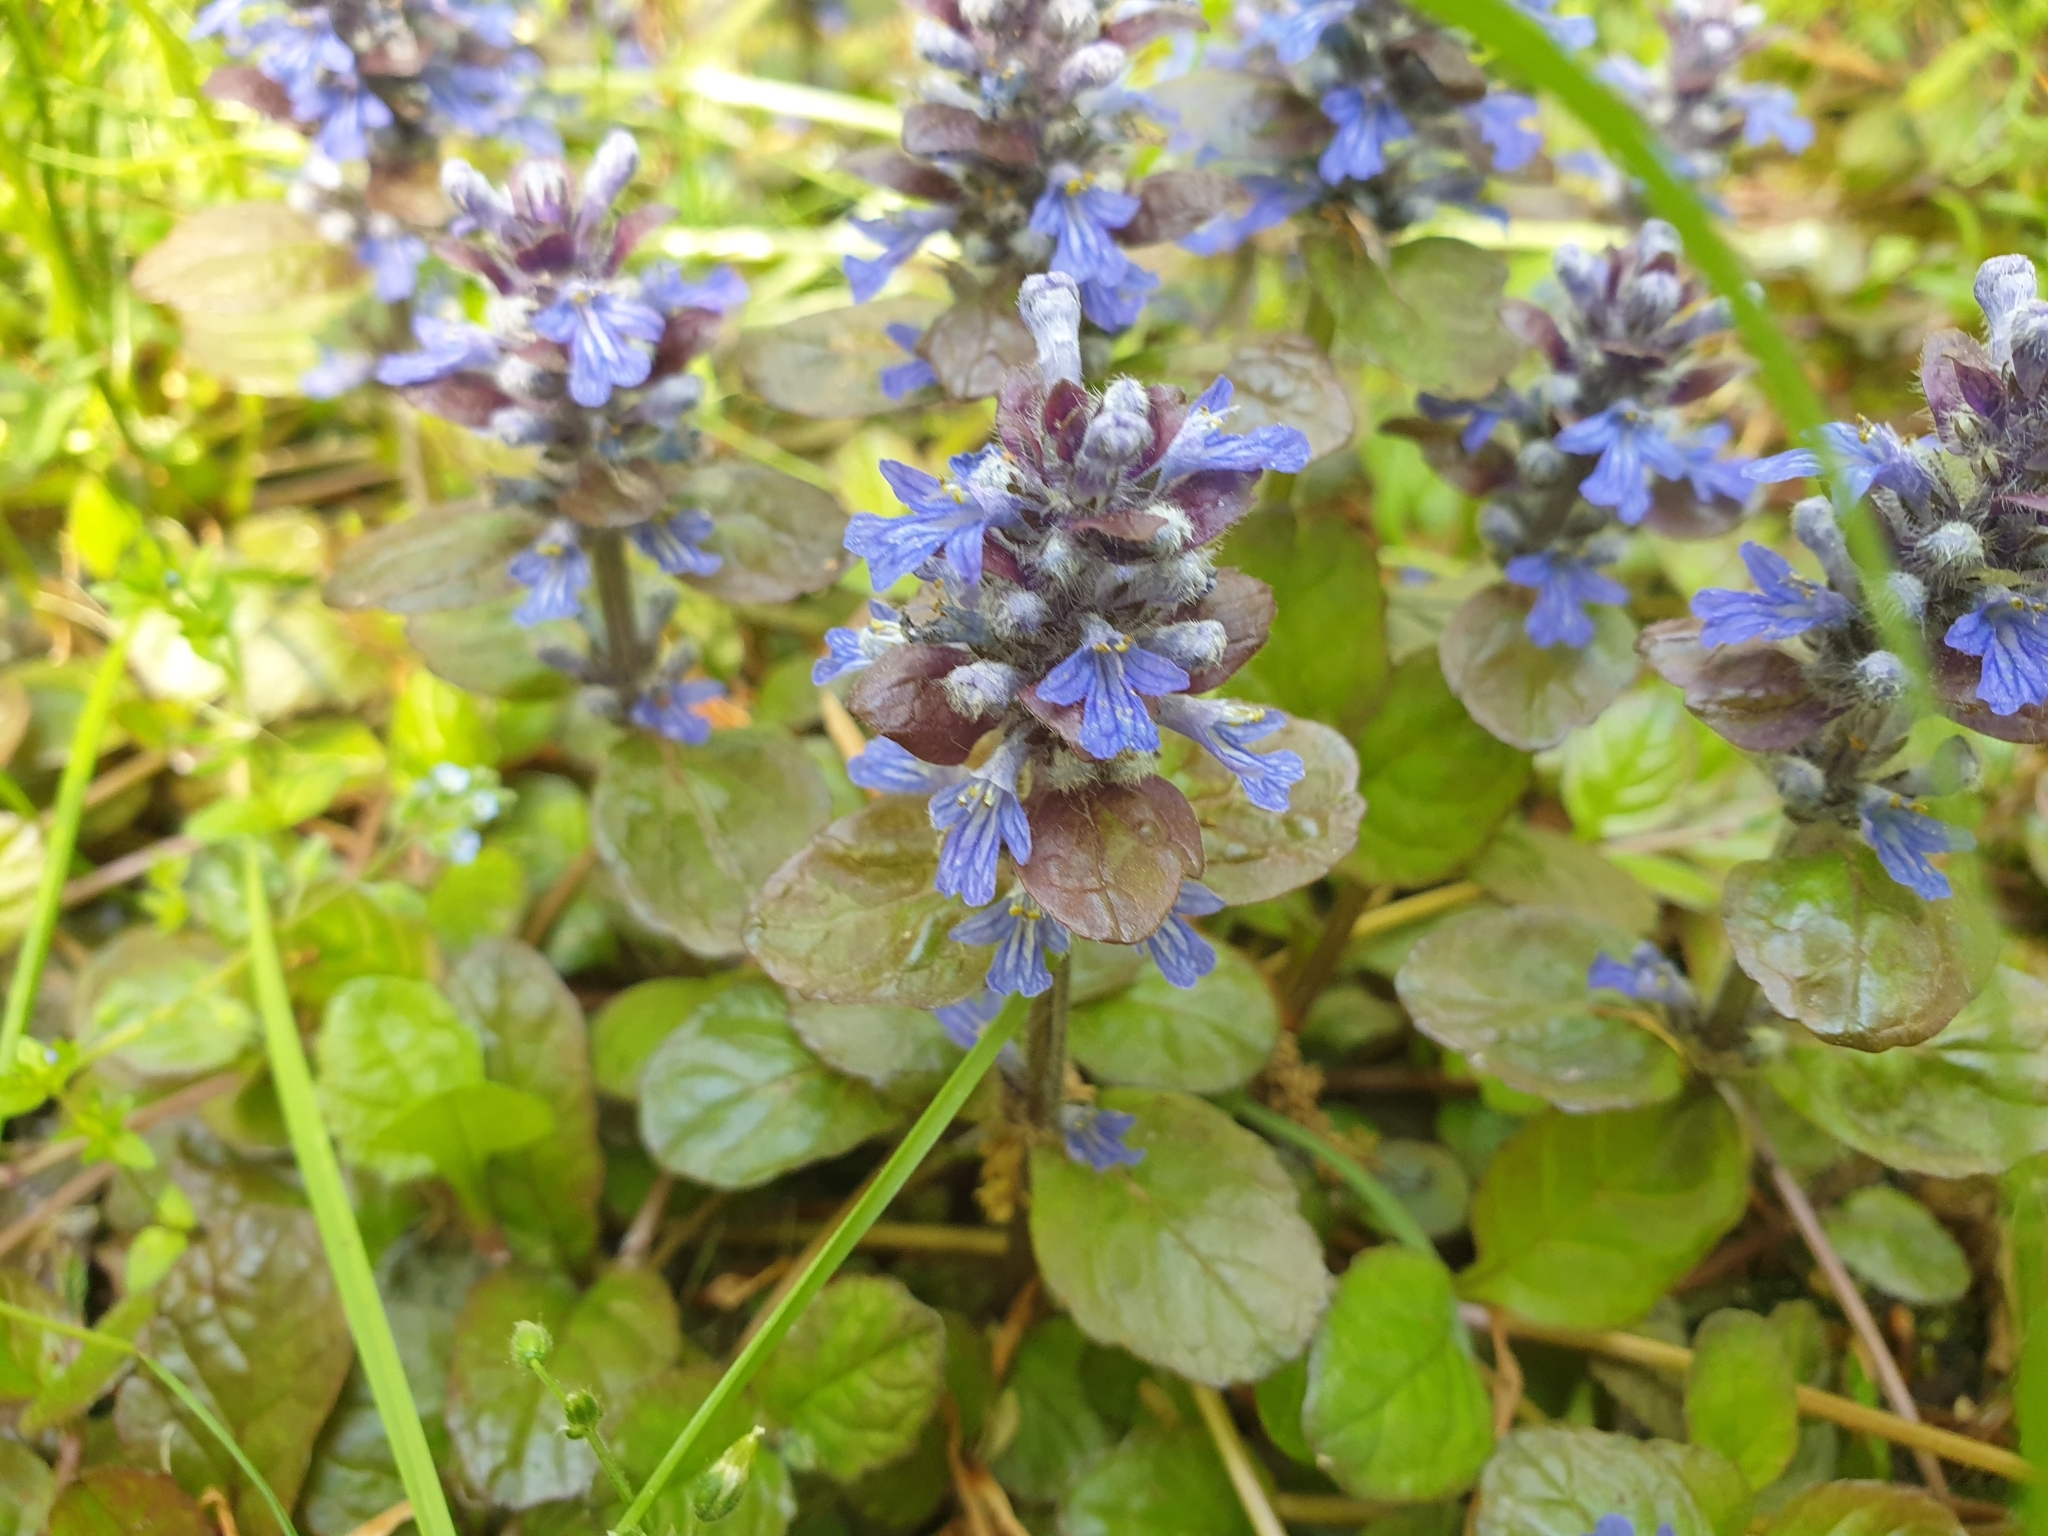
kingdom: Plantae
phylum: Tracheophyta
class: Magnoliopsida
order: Lamiales
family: Lamiaceae
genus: Ajuga
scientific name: Ajuga reptans
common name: Bugle
